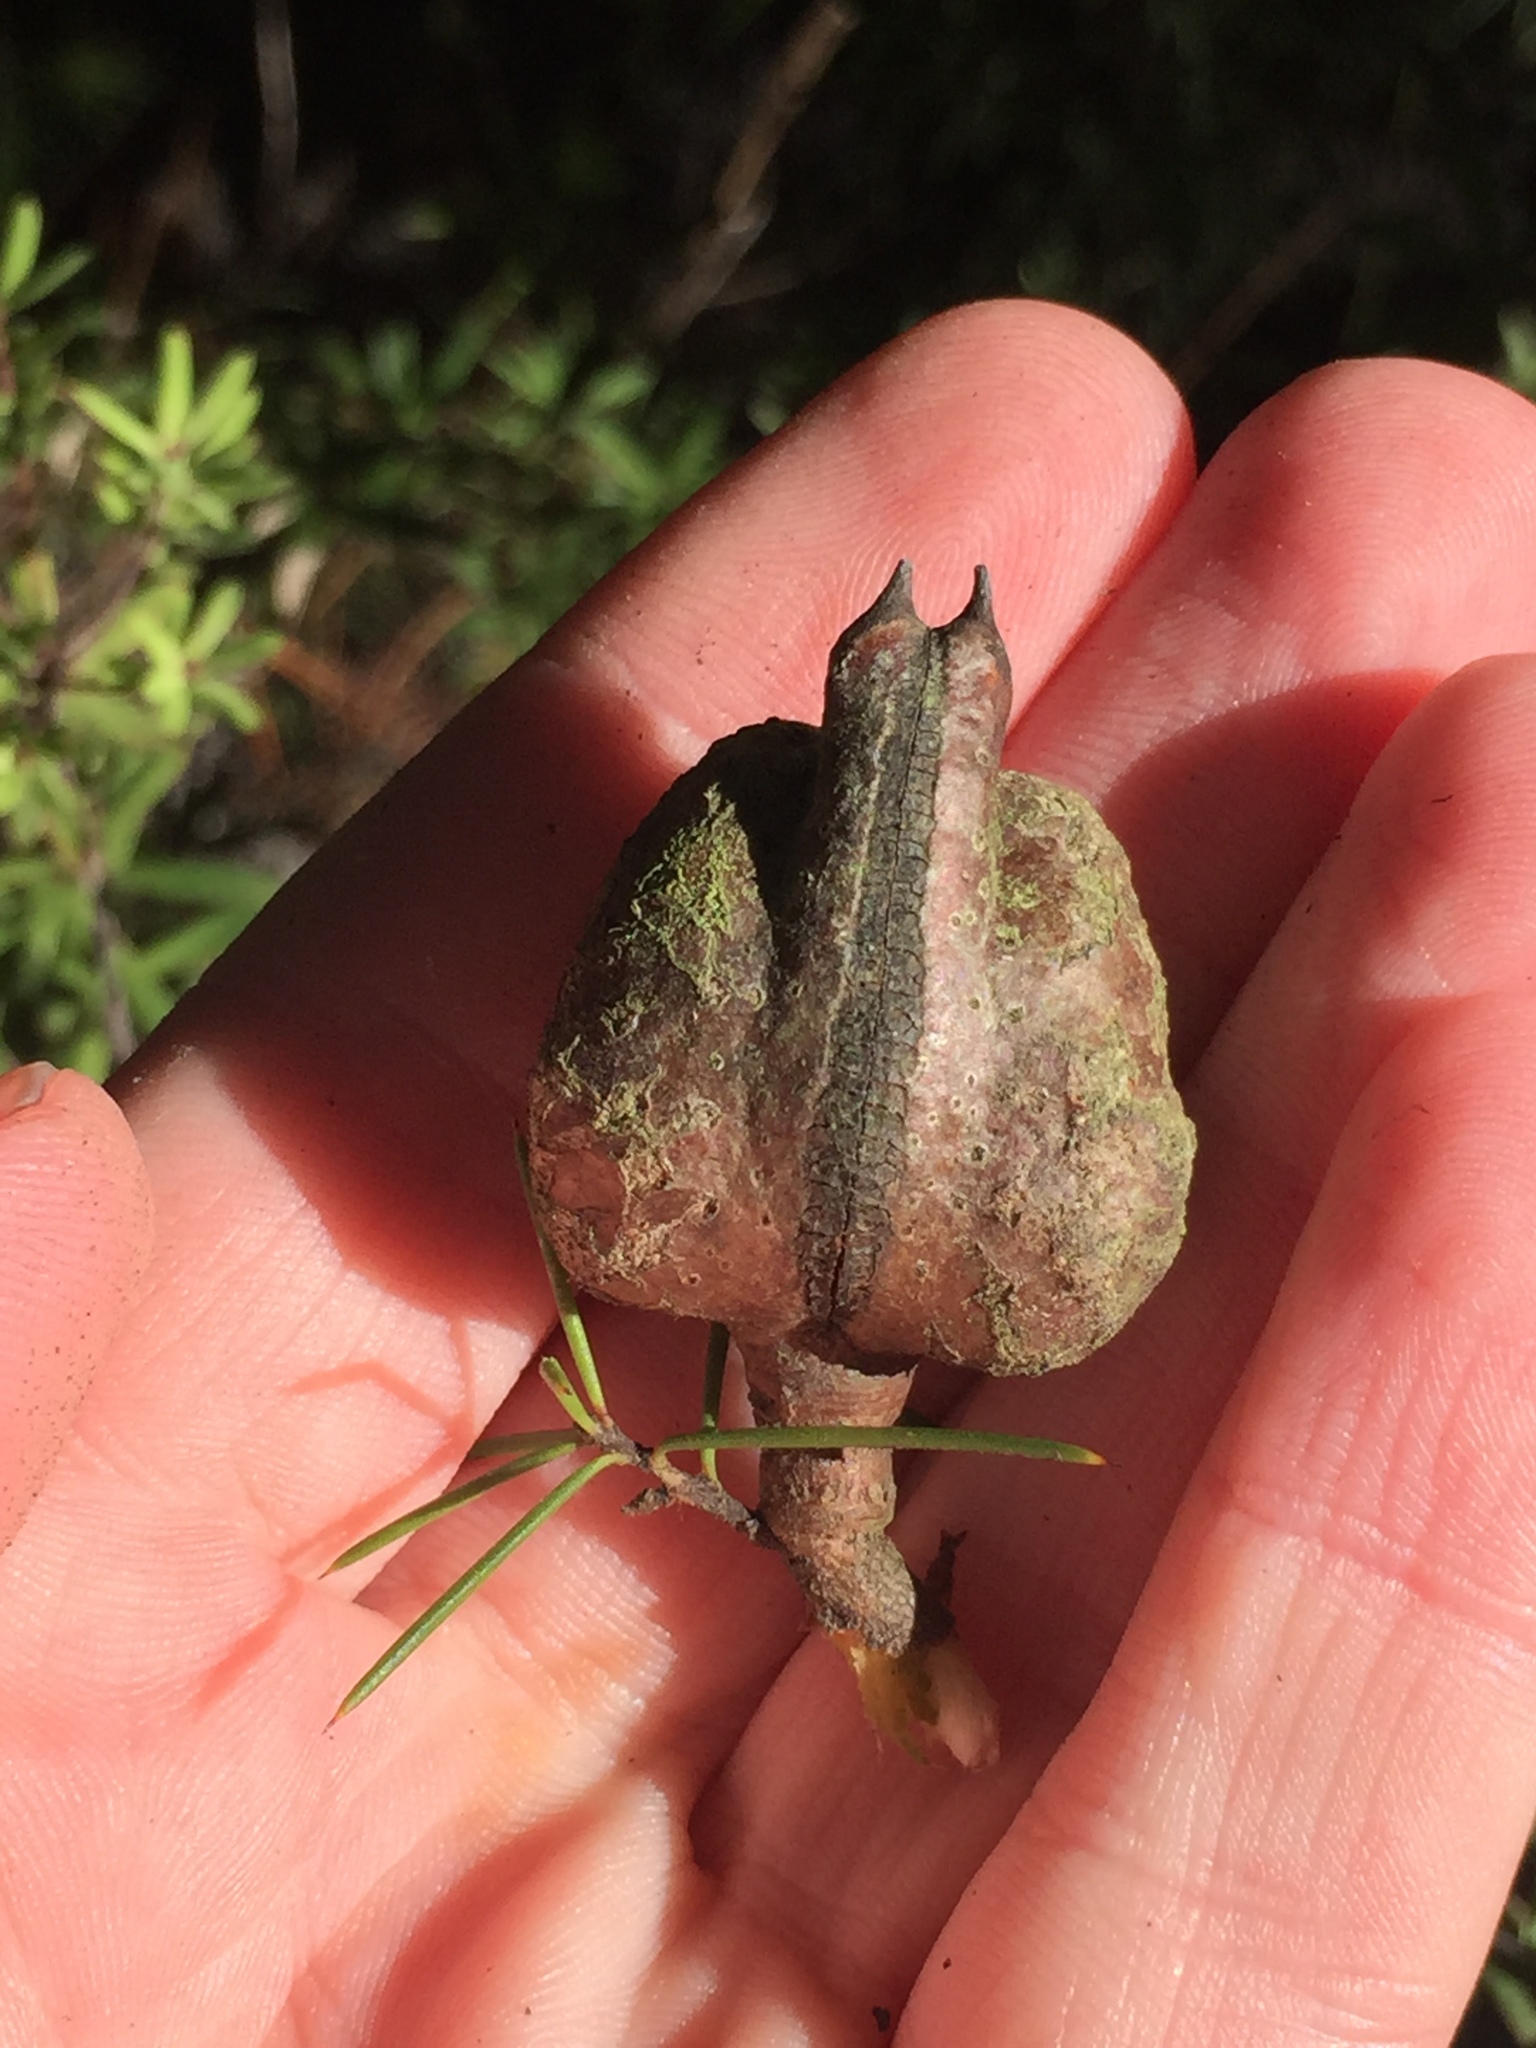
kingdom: Plantae
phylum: Tracheophyta
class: Magnoliopsida
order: Proteales
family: Proteaceae
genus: Hakea
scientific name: Hakea sericea
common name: Needle bush
